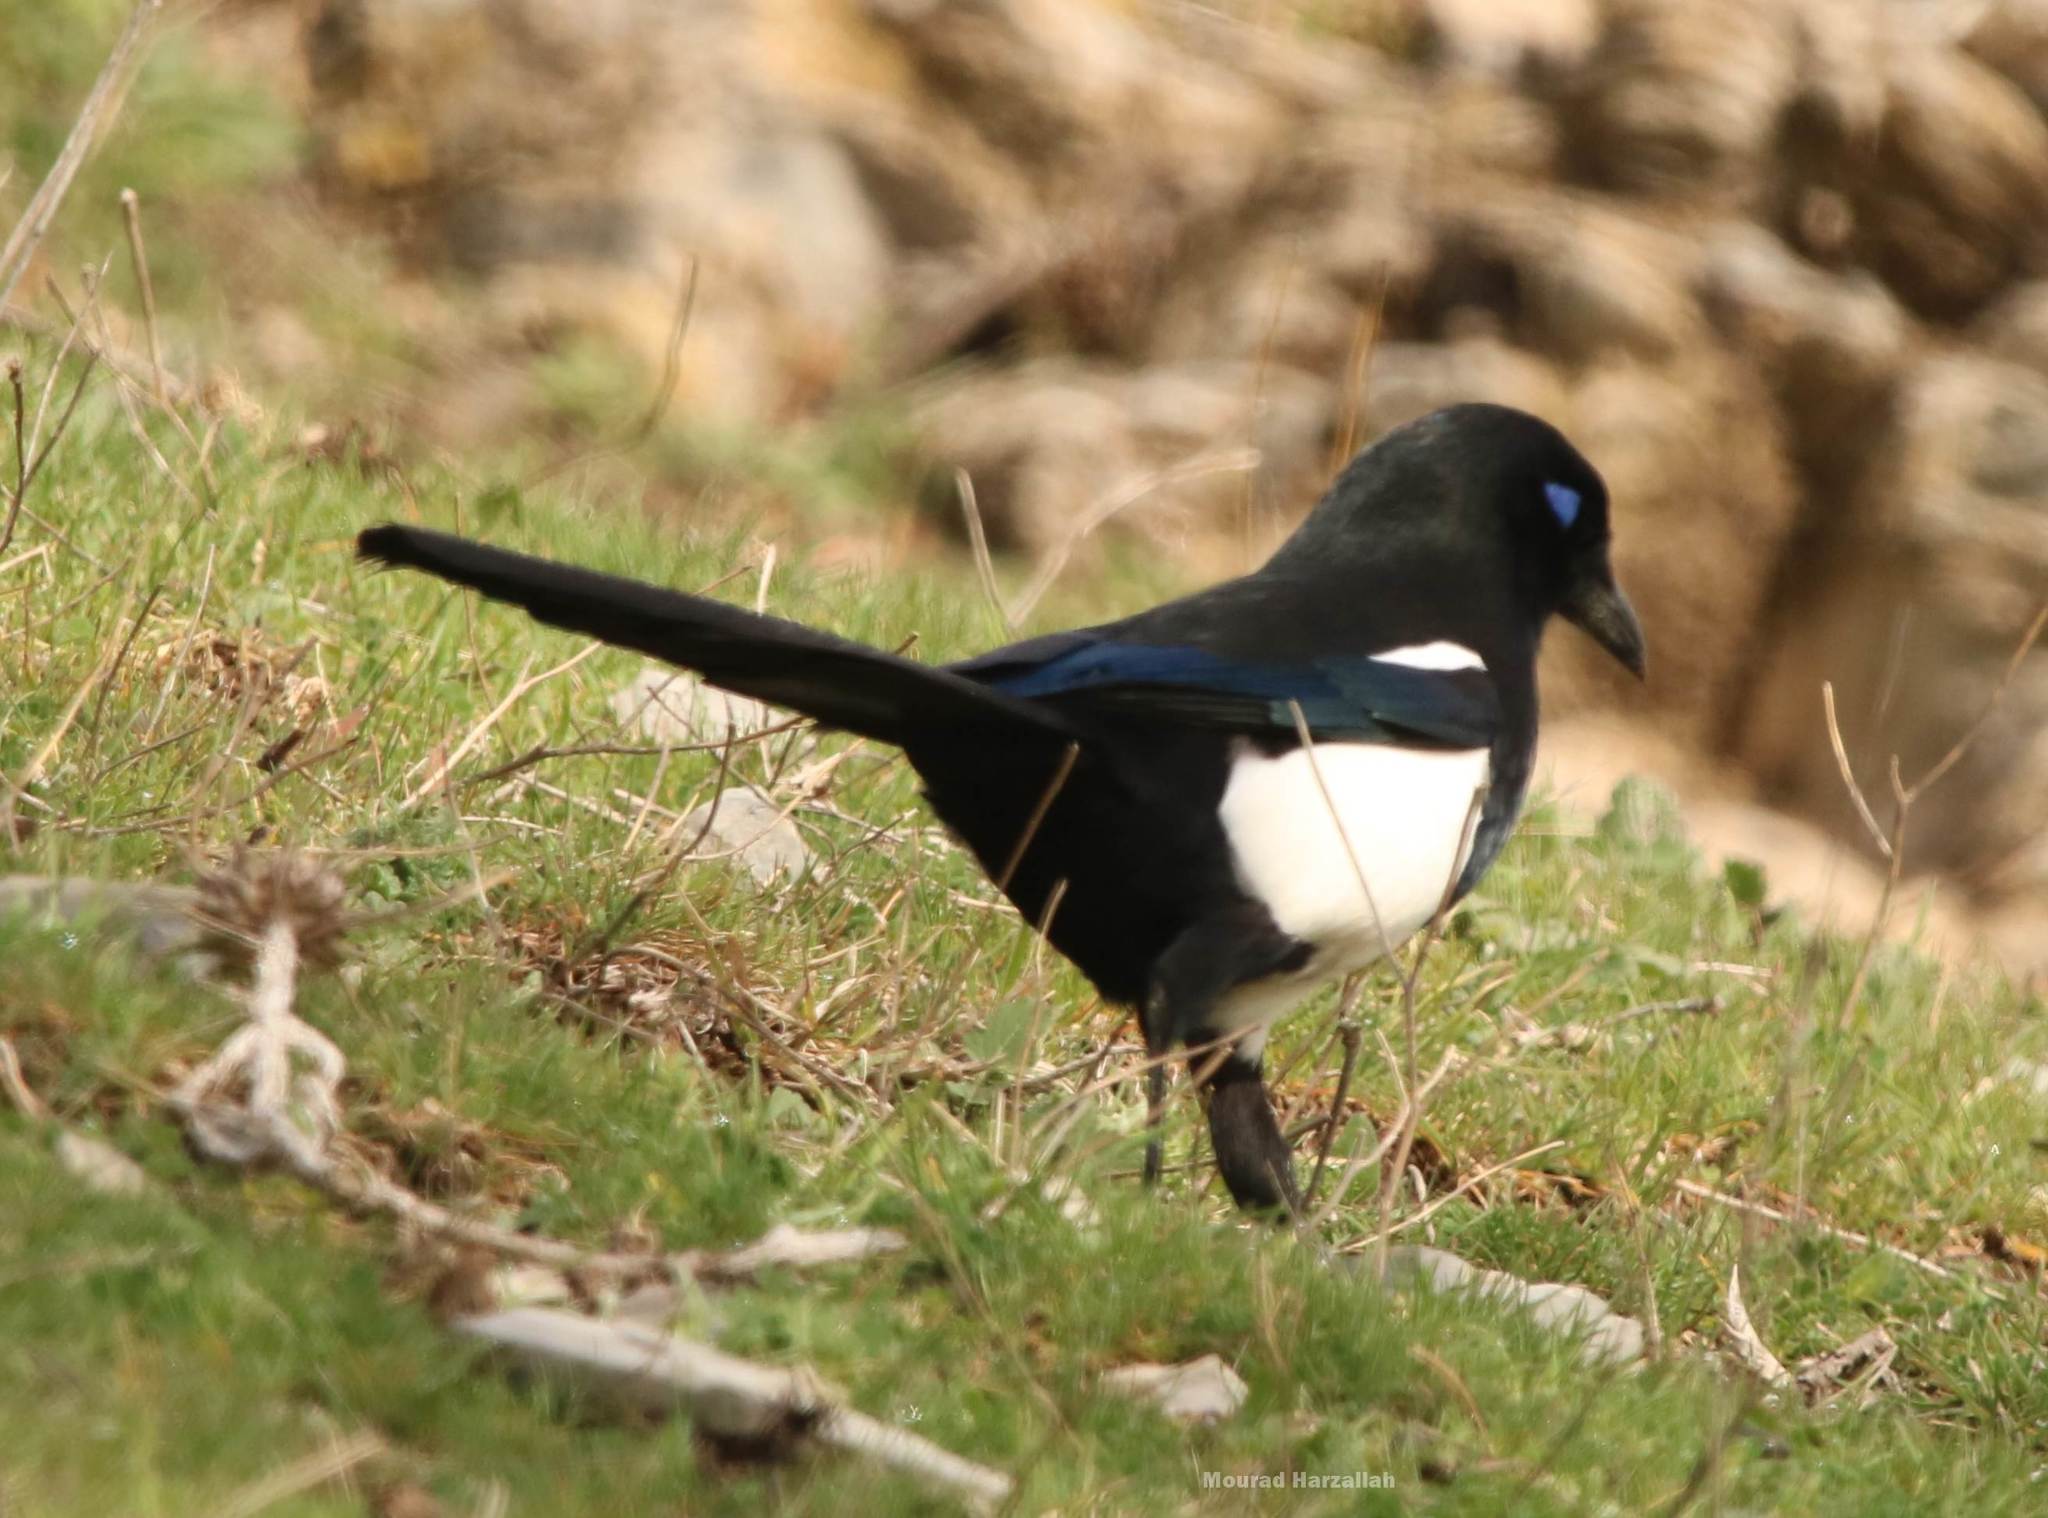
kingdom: Animalia
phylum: Chordata
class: Aves
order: Passeriformes
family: Corvidae
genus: Pica
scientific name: Pica mauritanica
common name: Maghreb magpie
